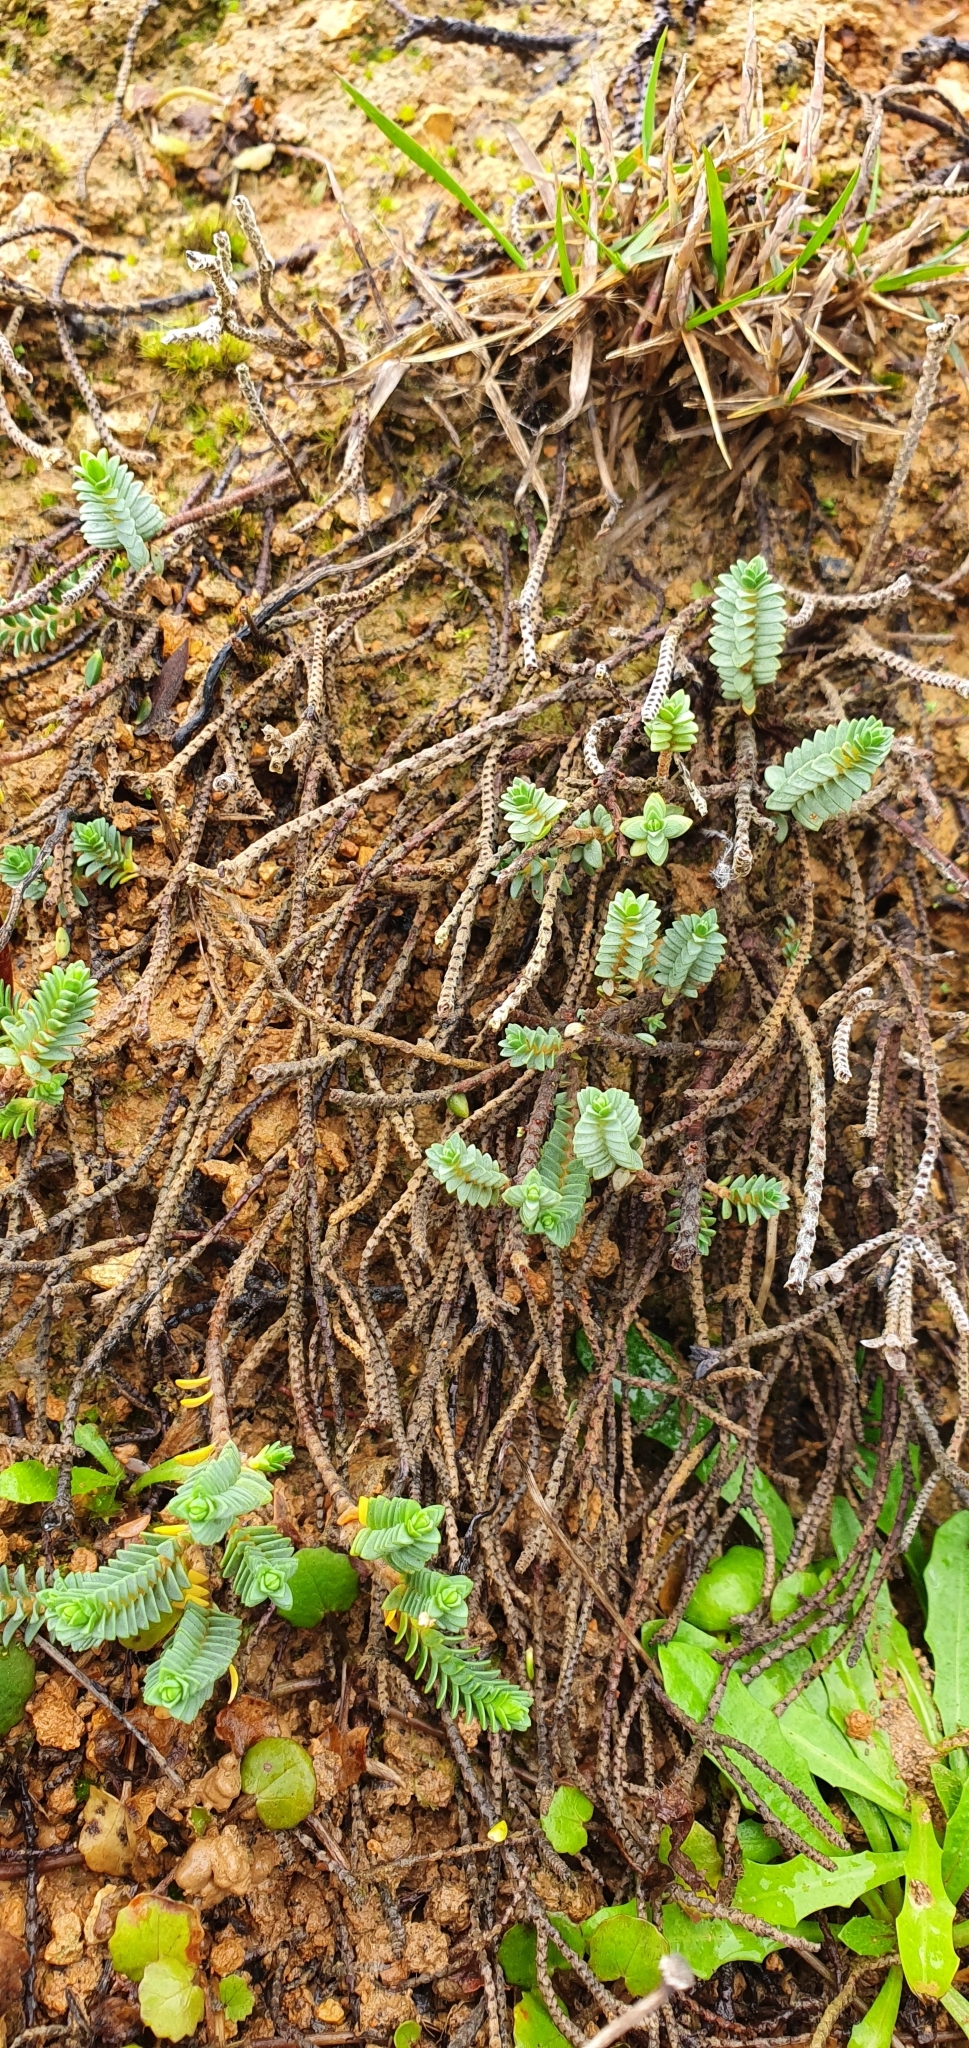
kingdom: Plantae
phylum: Tracheophyta
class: Magnoliopsida
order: Malvales
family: Thymelaeaceae
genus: Pimelea
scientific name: Pimelea prostrata
